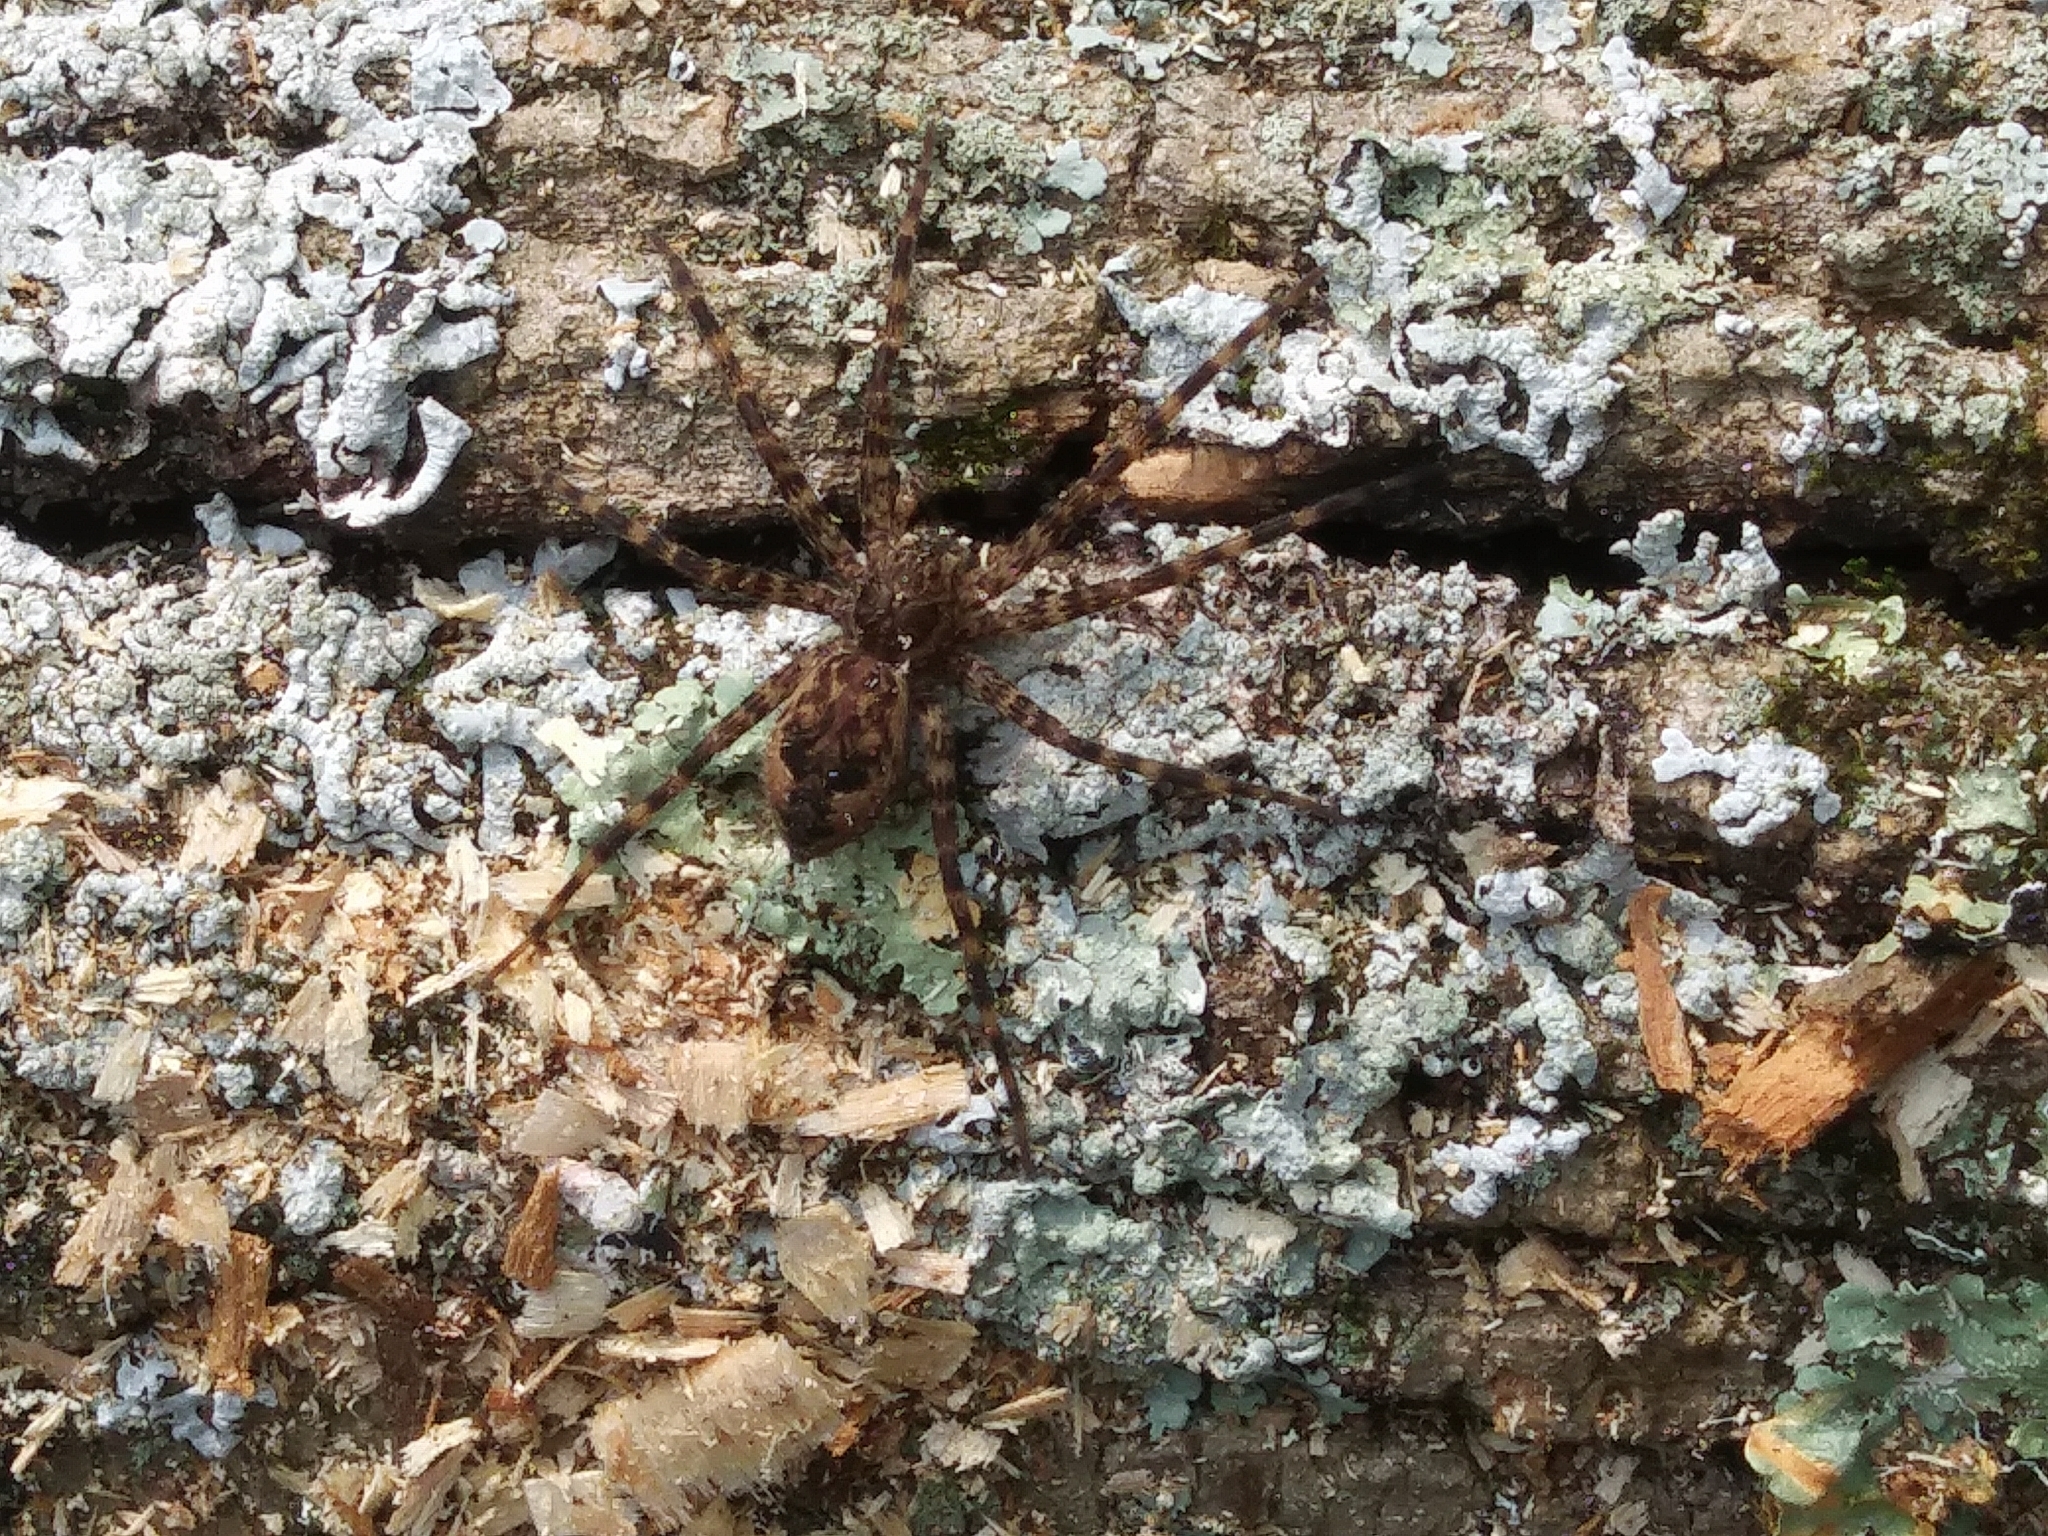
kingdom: Animalia
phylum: Arthropoda
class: Arachnida
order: Araneae
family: Pisauridae
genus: Dolomedes
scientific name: Dolomedes tenebrosus
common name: Dark fishing spider
